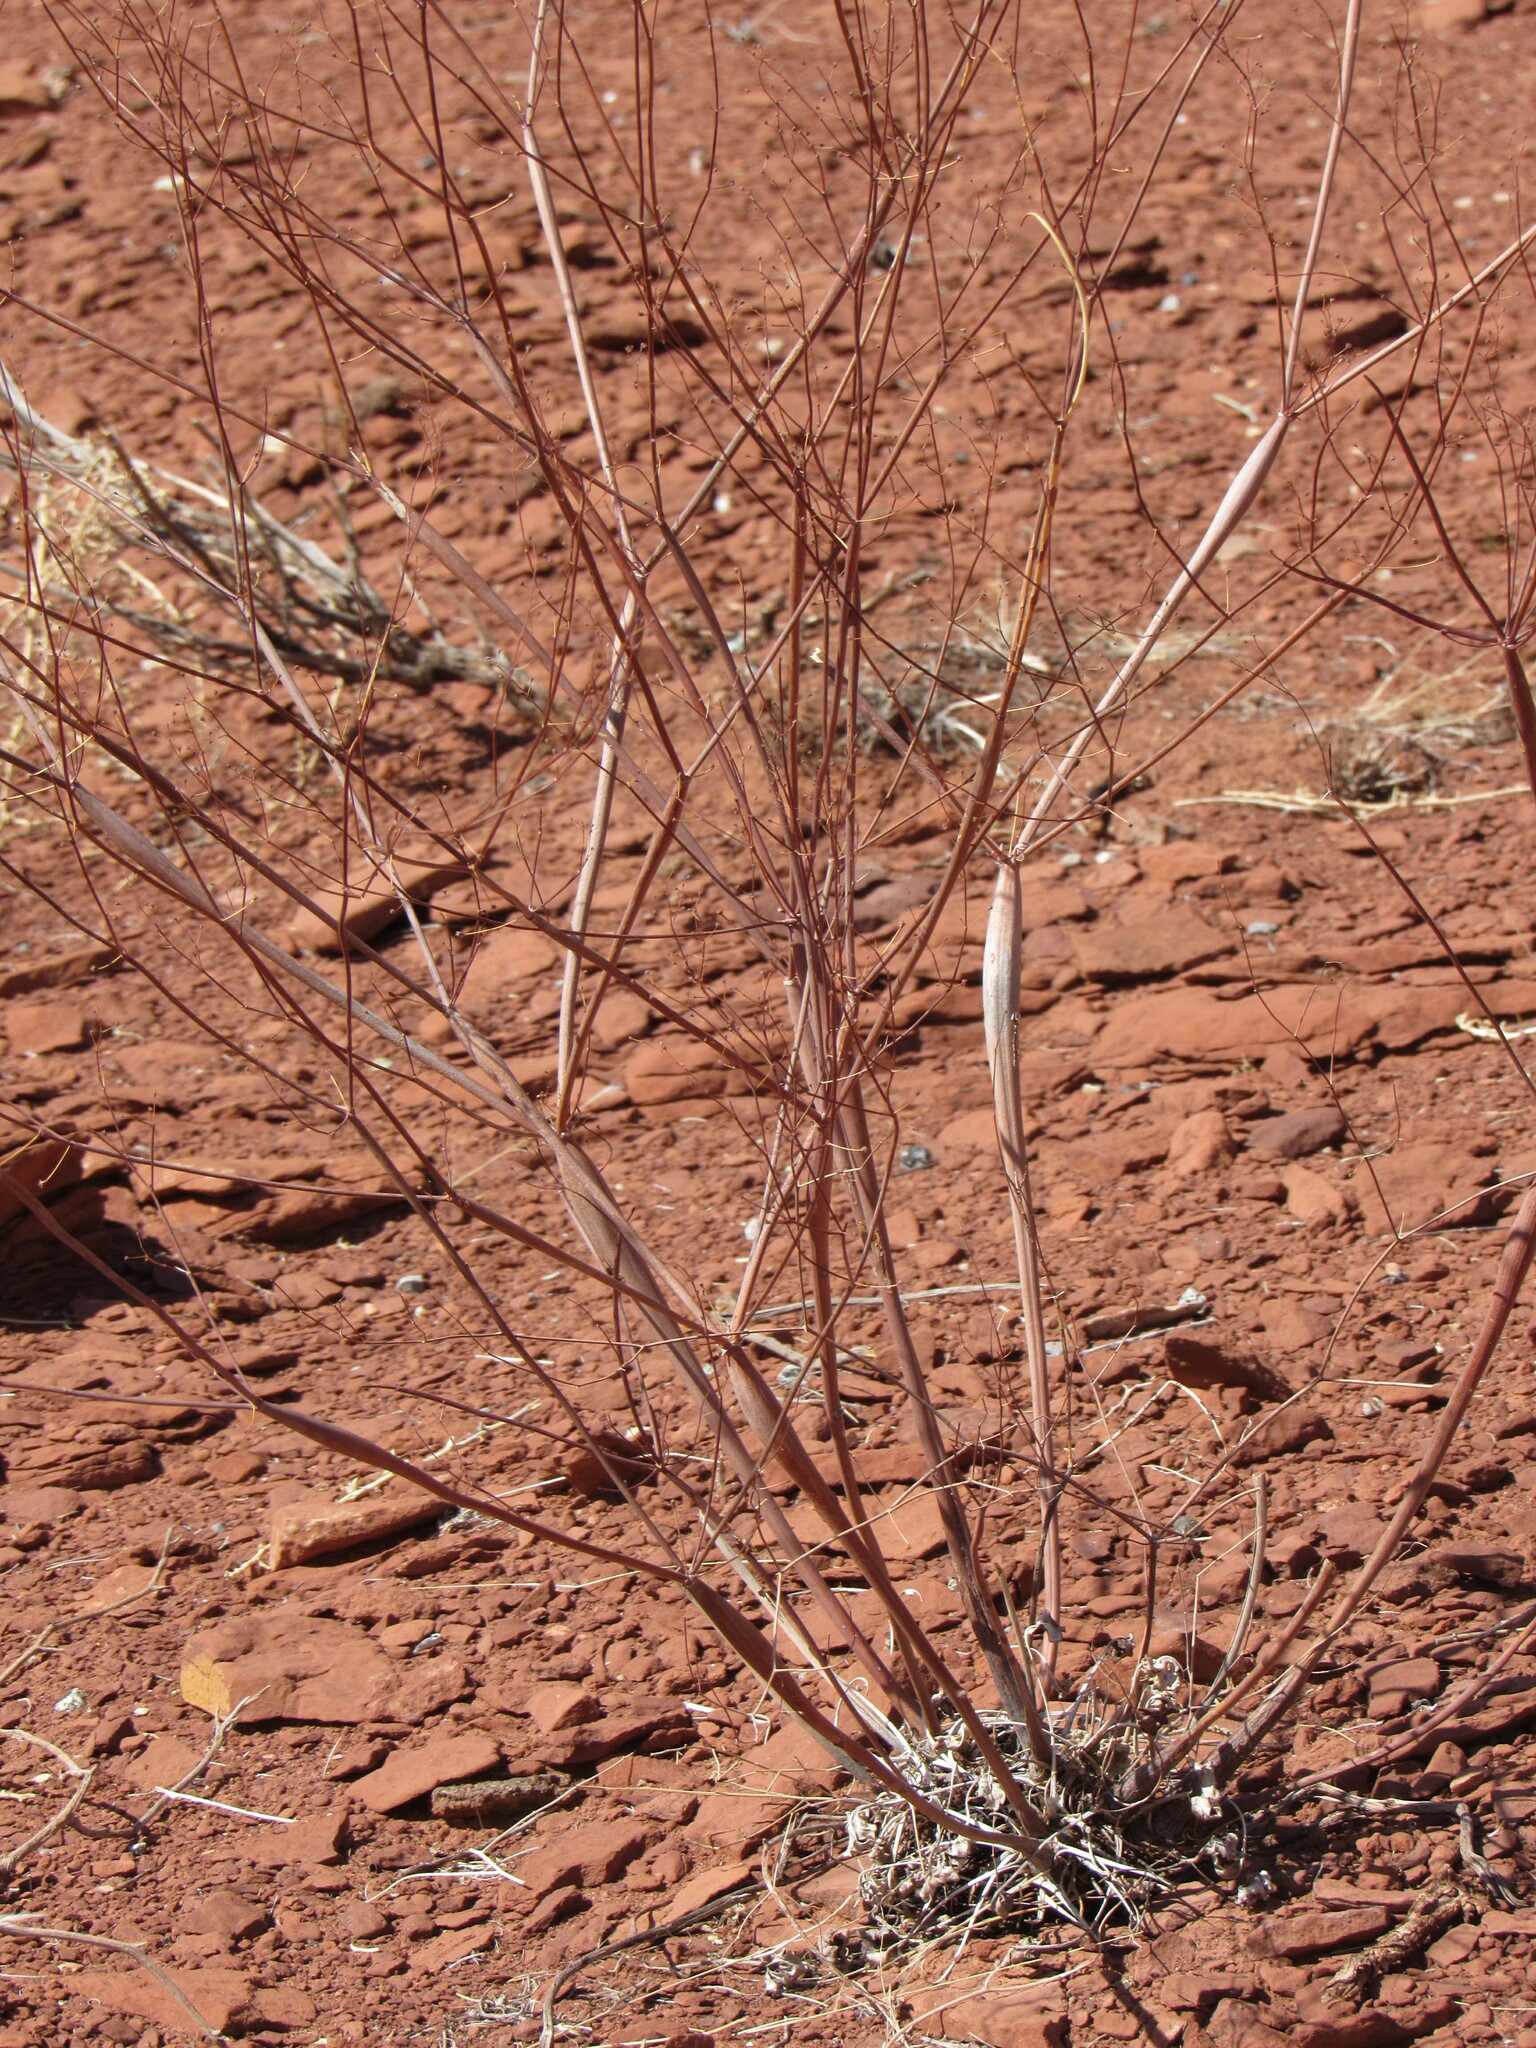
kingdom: Plantae
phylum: Tracheophyta
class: Magnoliopsida
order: Caryophyllales
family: Polygonaceae
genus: Eriogonum
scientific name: Eriogonum inflatum
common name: Desert trumpet
